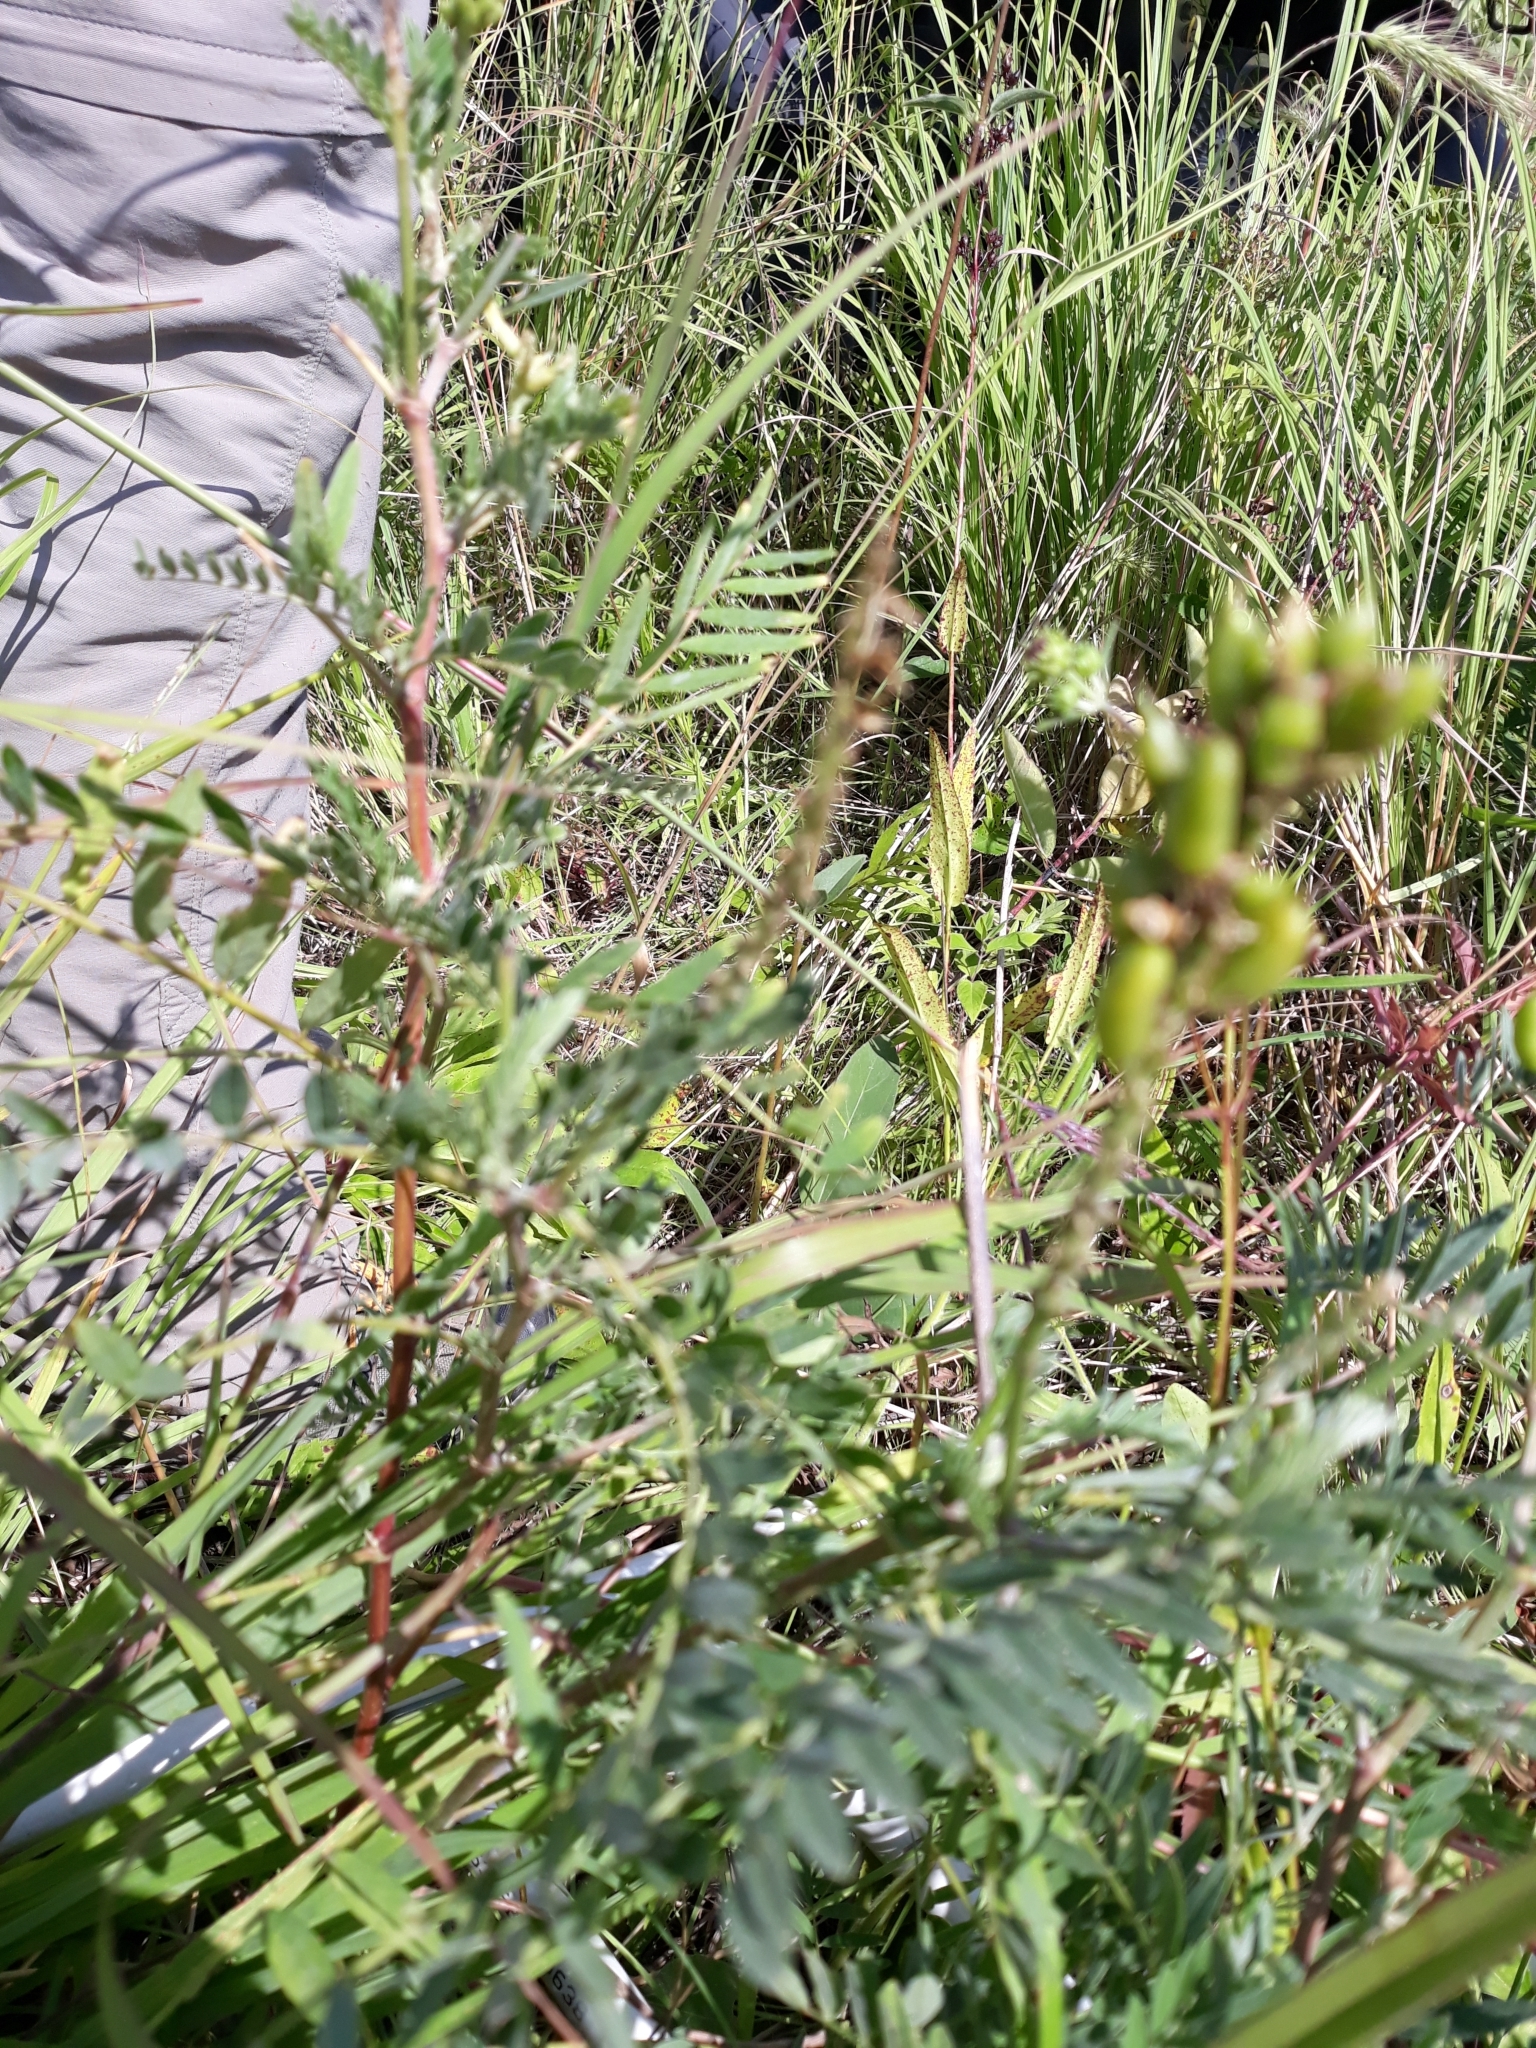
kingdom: Plantae
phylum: Tracheophyta
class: Magnoliopsida
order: Fabales
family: Fabaceae
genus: Astragalus
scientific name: Astragalus canadensis
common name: Canada milk-vetch
